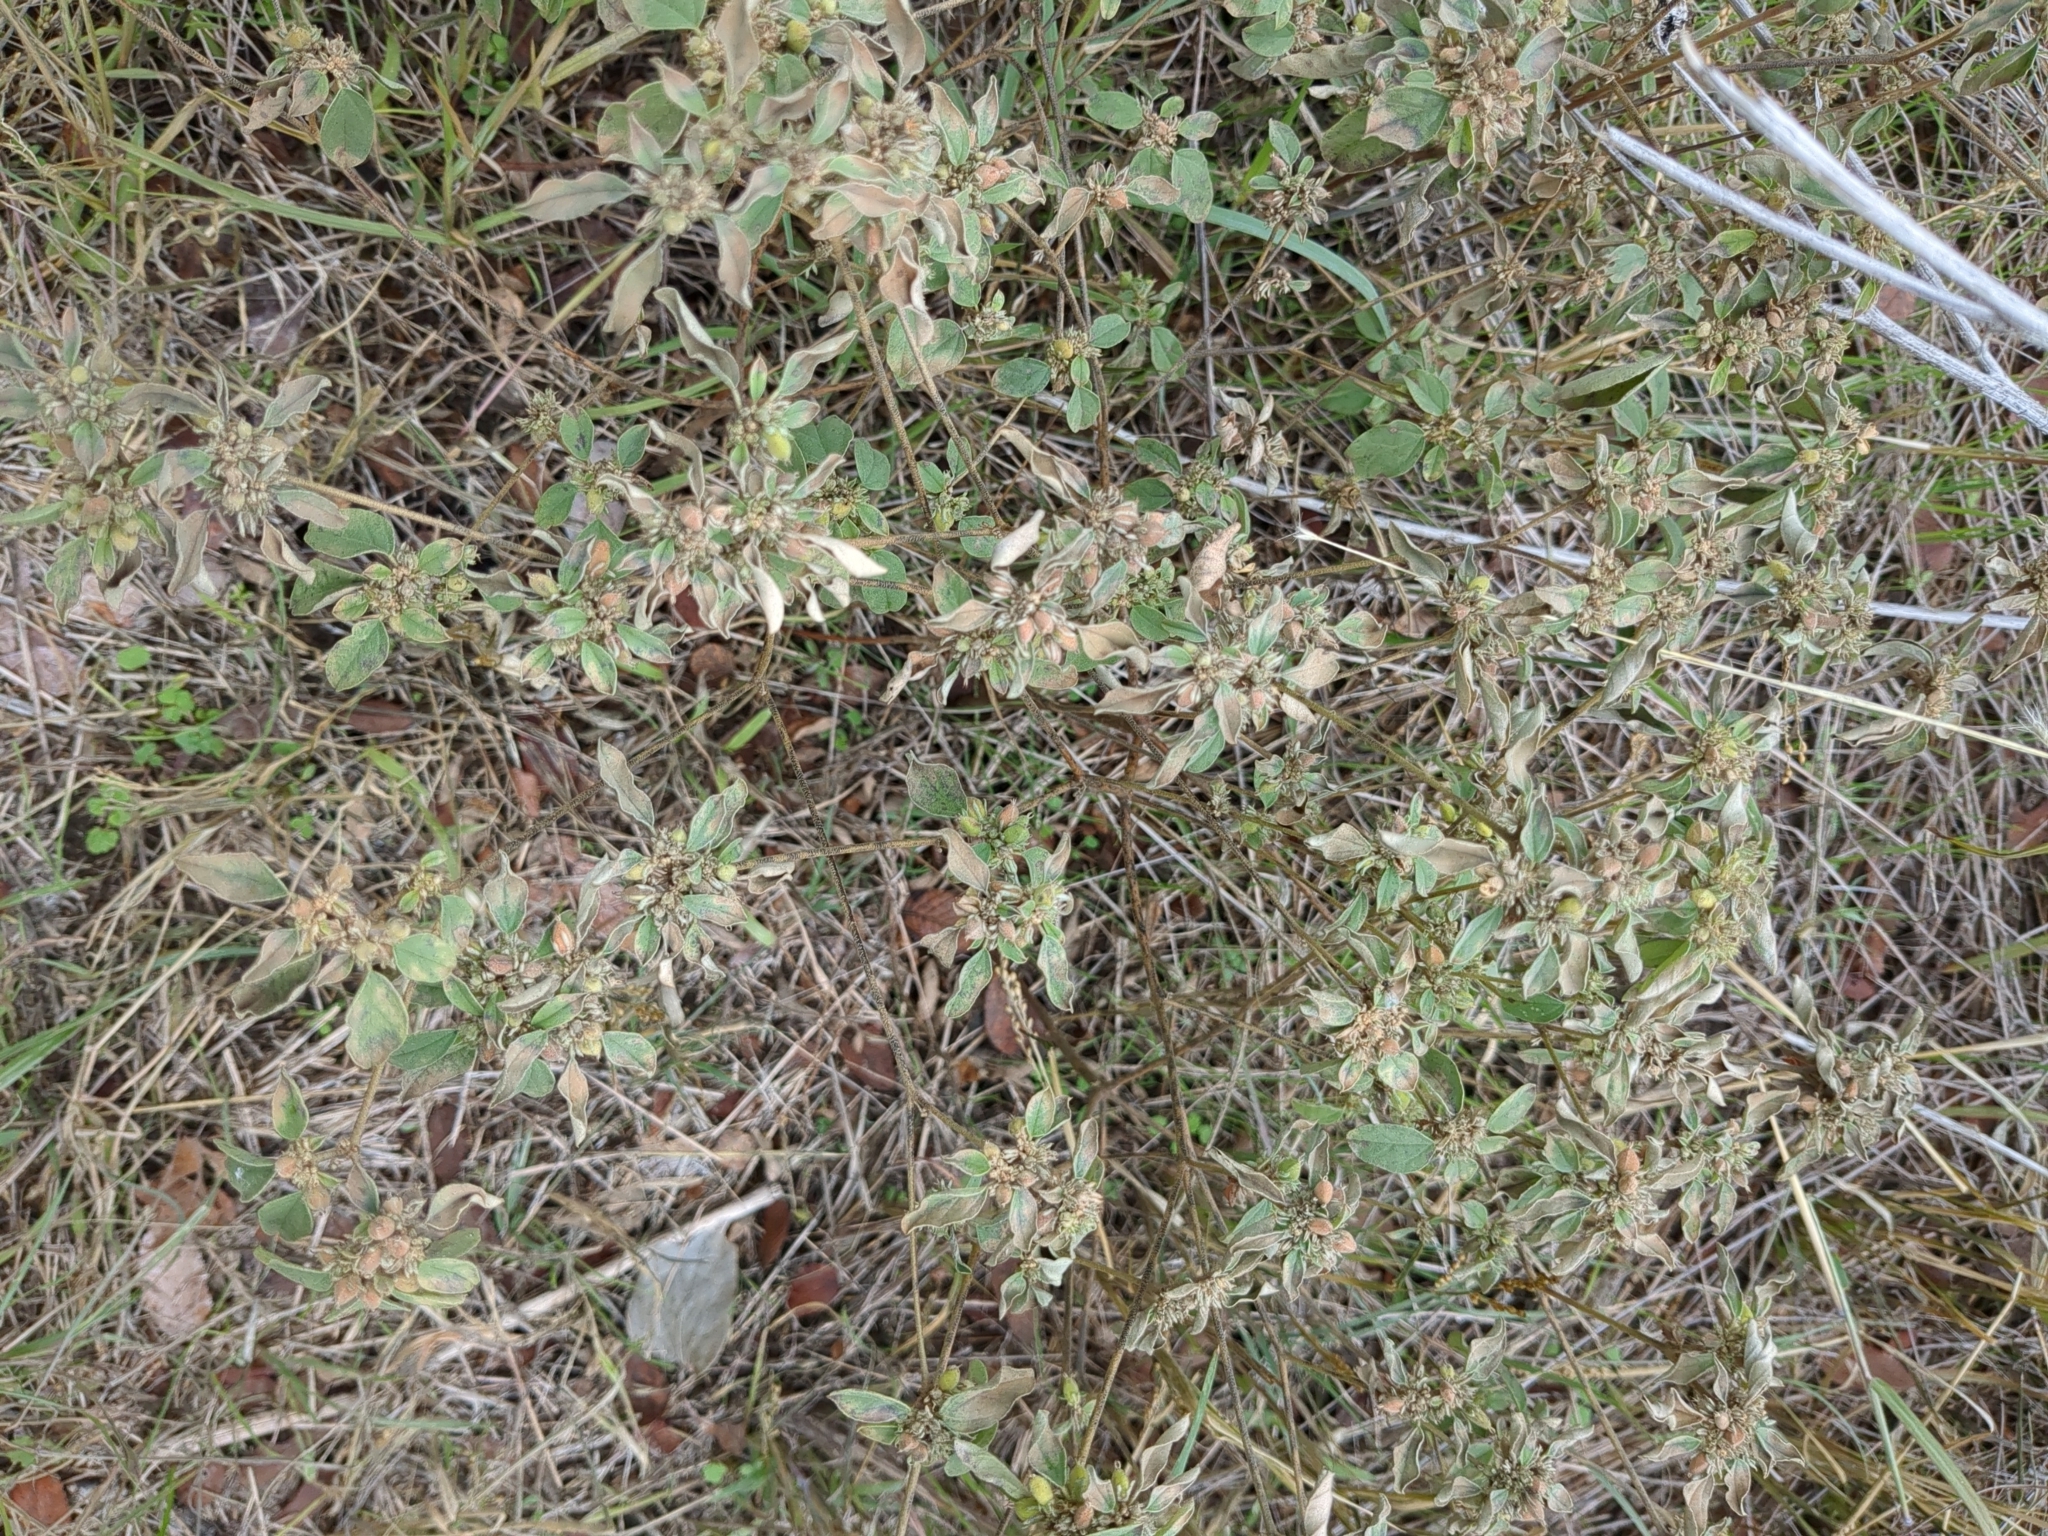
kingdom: Plantae
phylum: Tracheophyta
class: Magnoliopsida
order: Malpighiales
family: Euphorbiaceae
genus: Croton
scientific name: Croton monanthogynus
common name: One-seed croton
